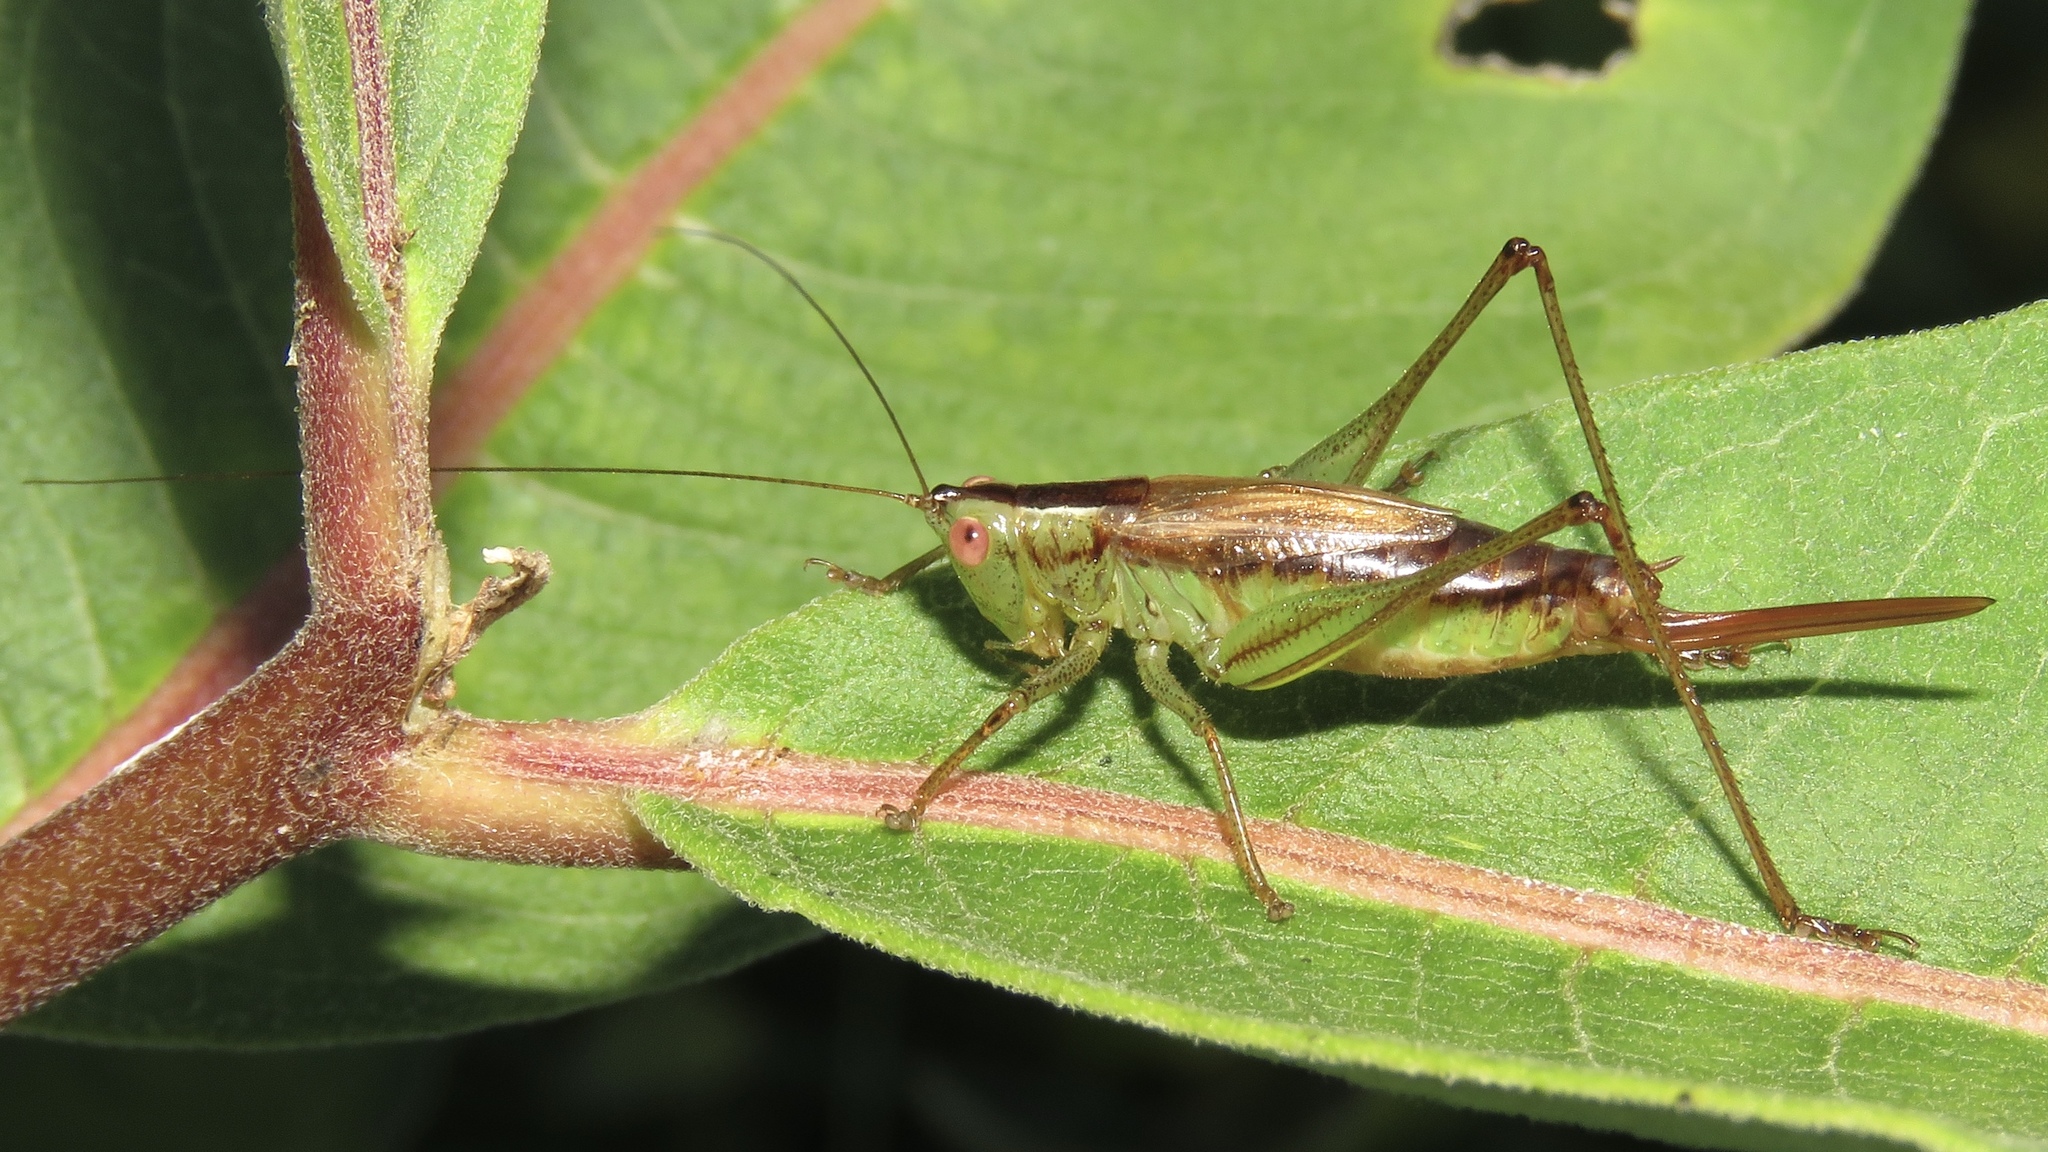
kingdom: Animalia
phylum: Arthropoda
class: Insecta
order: Orthoptera
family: Tettigoniidae
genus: Conocephalus
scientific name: Conocephalus brevipennis
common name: Short-winged meadow katydid
